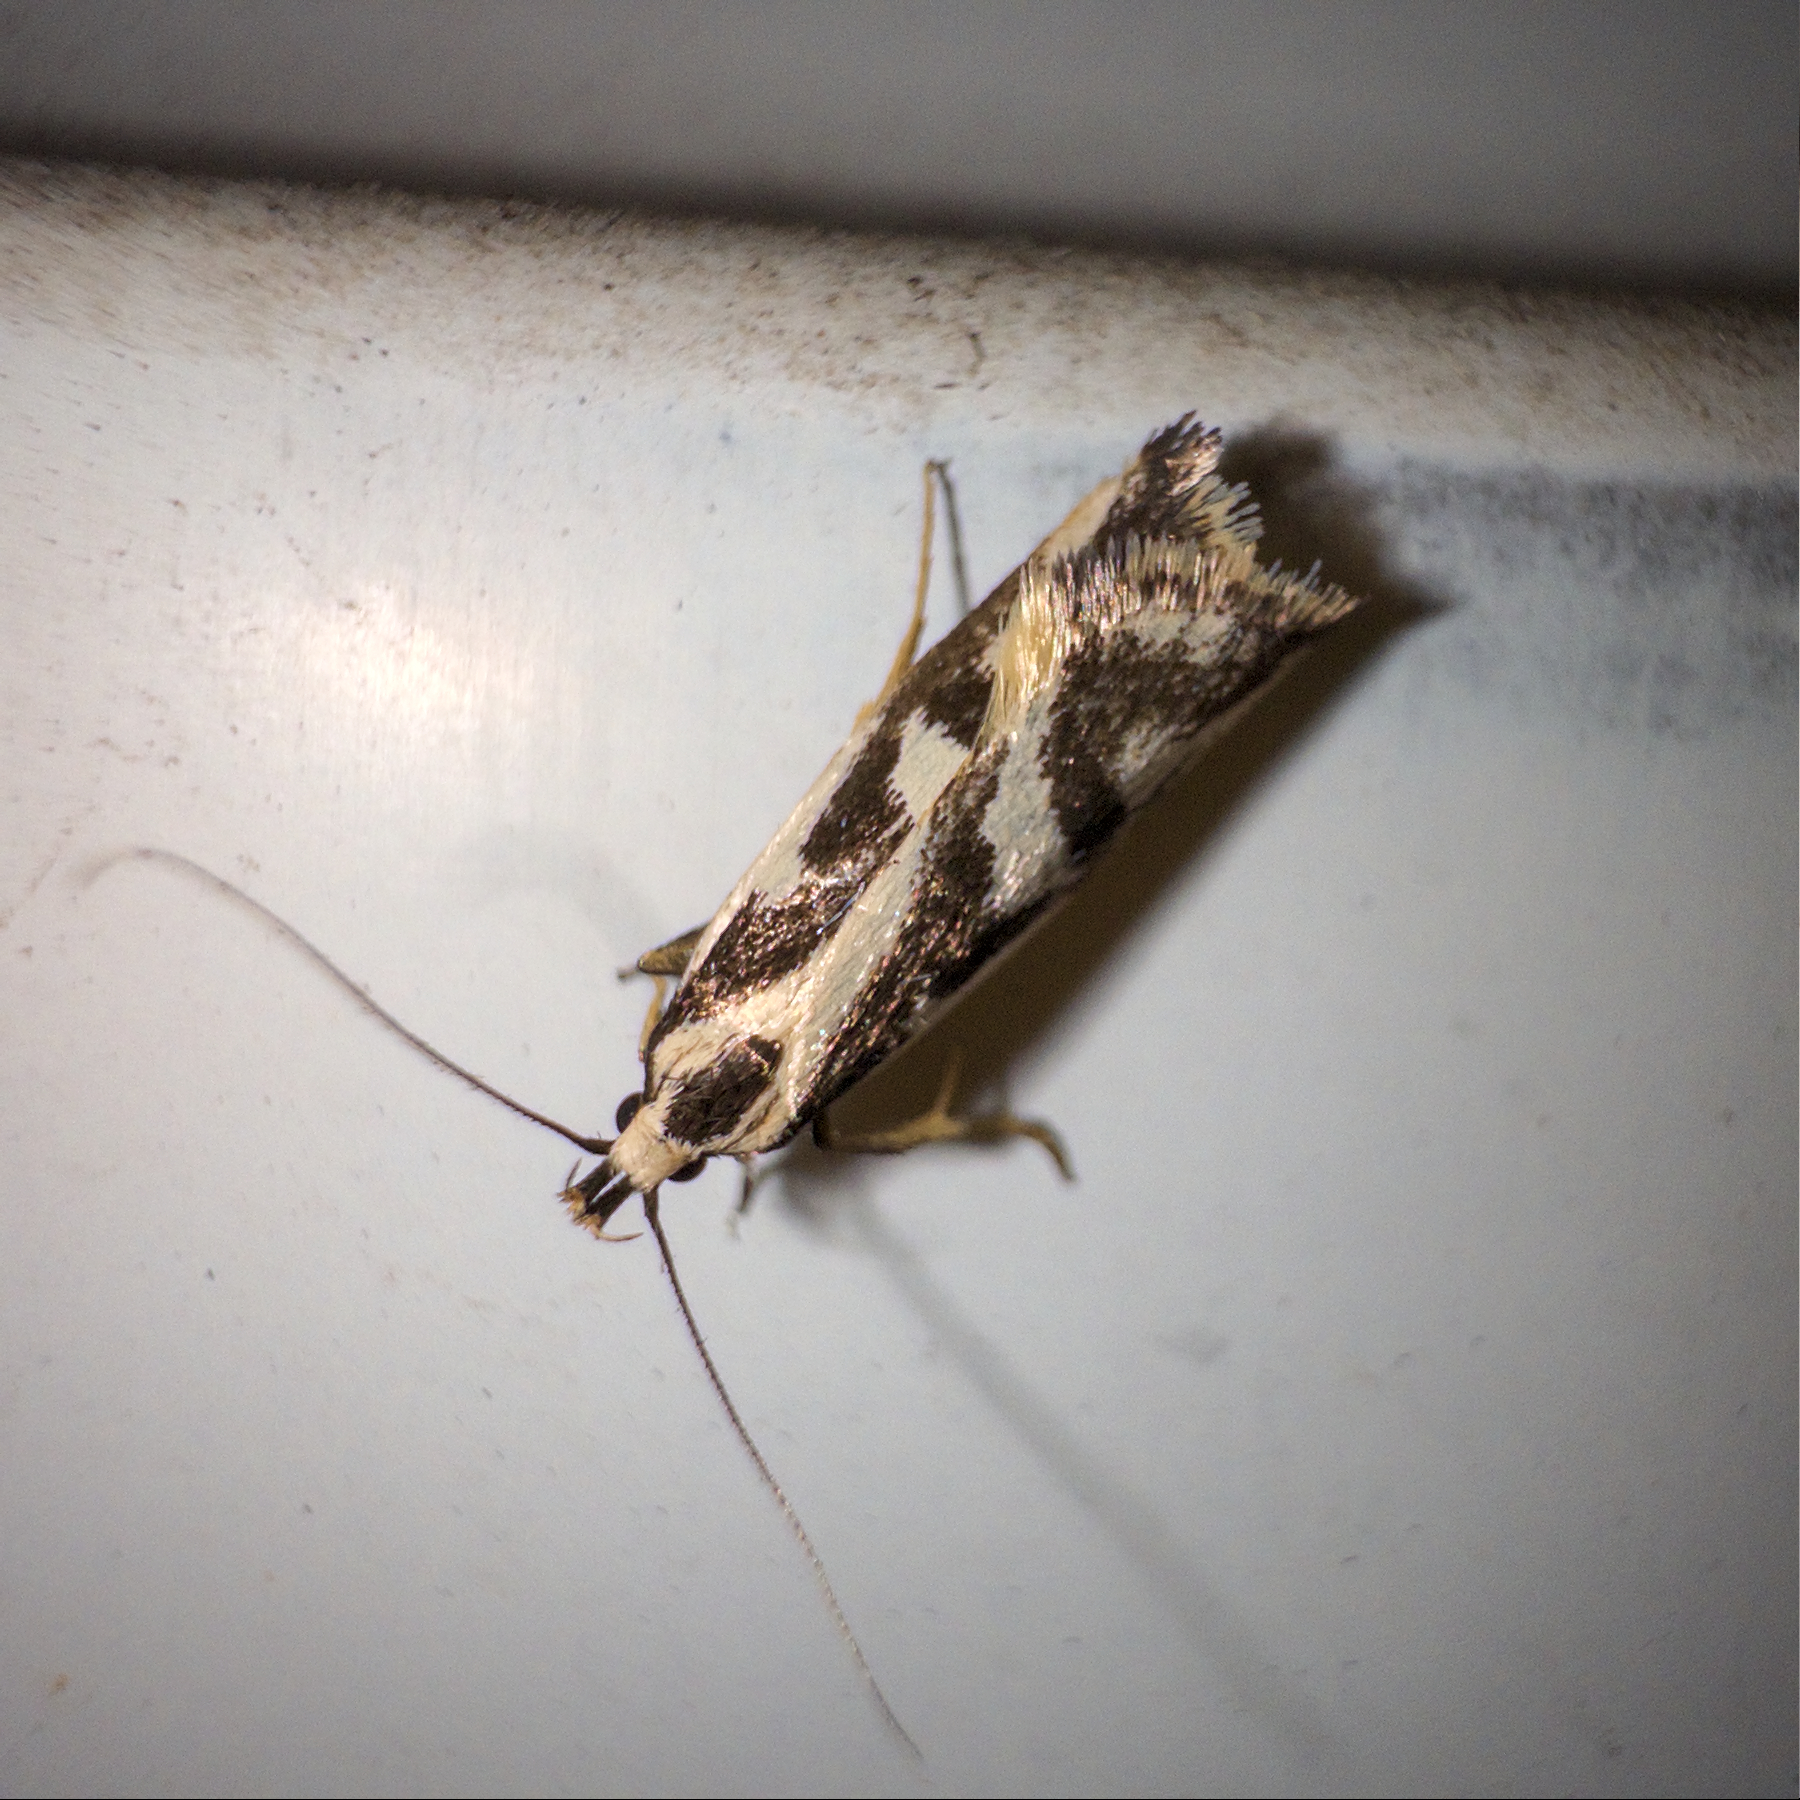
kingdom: Animalia
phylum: Arthropoda
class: Insecta
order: Lepidoptera
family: Oecophoridae
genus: Epithymema
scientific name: Epithymema incomposita
